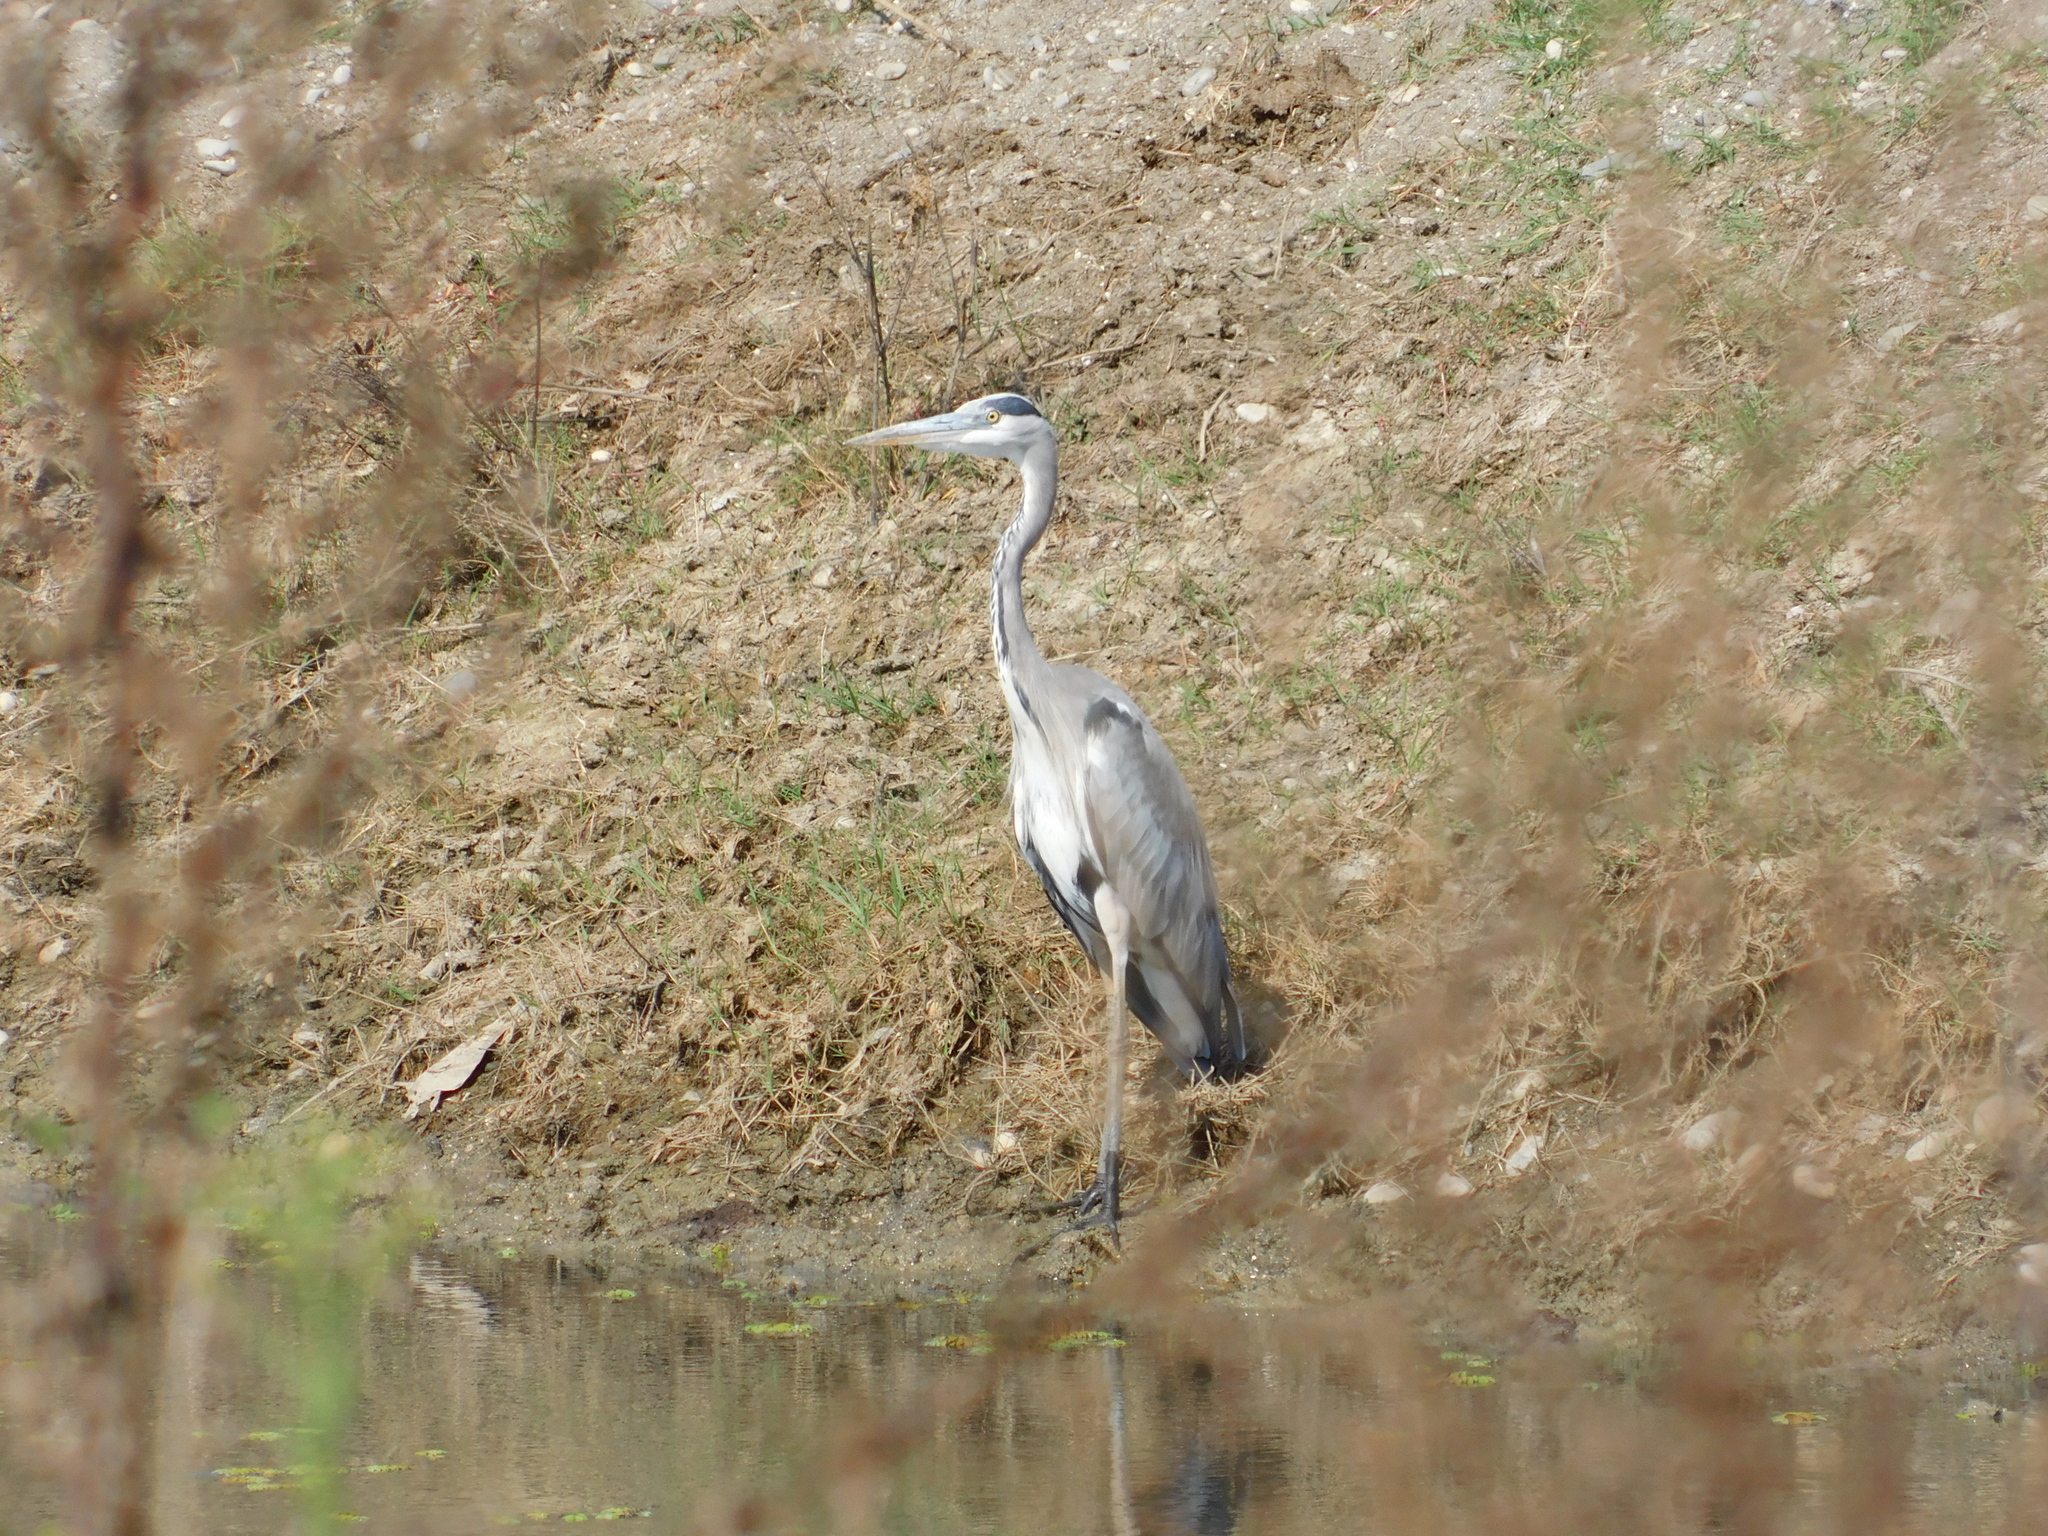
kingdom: Animalia
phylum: Chordata
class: Aves
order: Pelecaniformes
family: Ardeidae
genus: Ardea
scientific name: Ardea cinerea
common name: Grey heron
